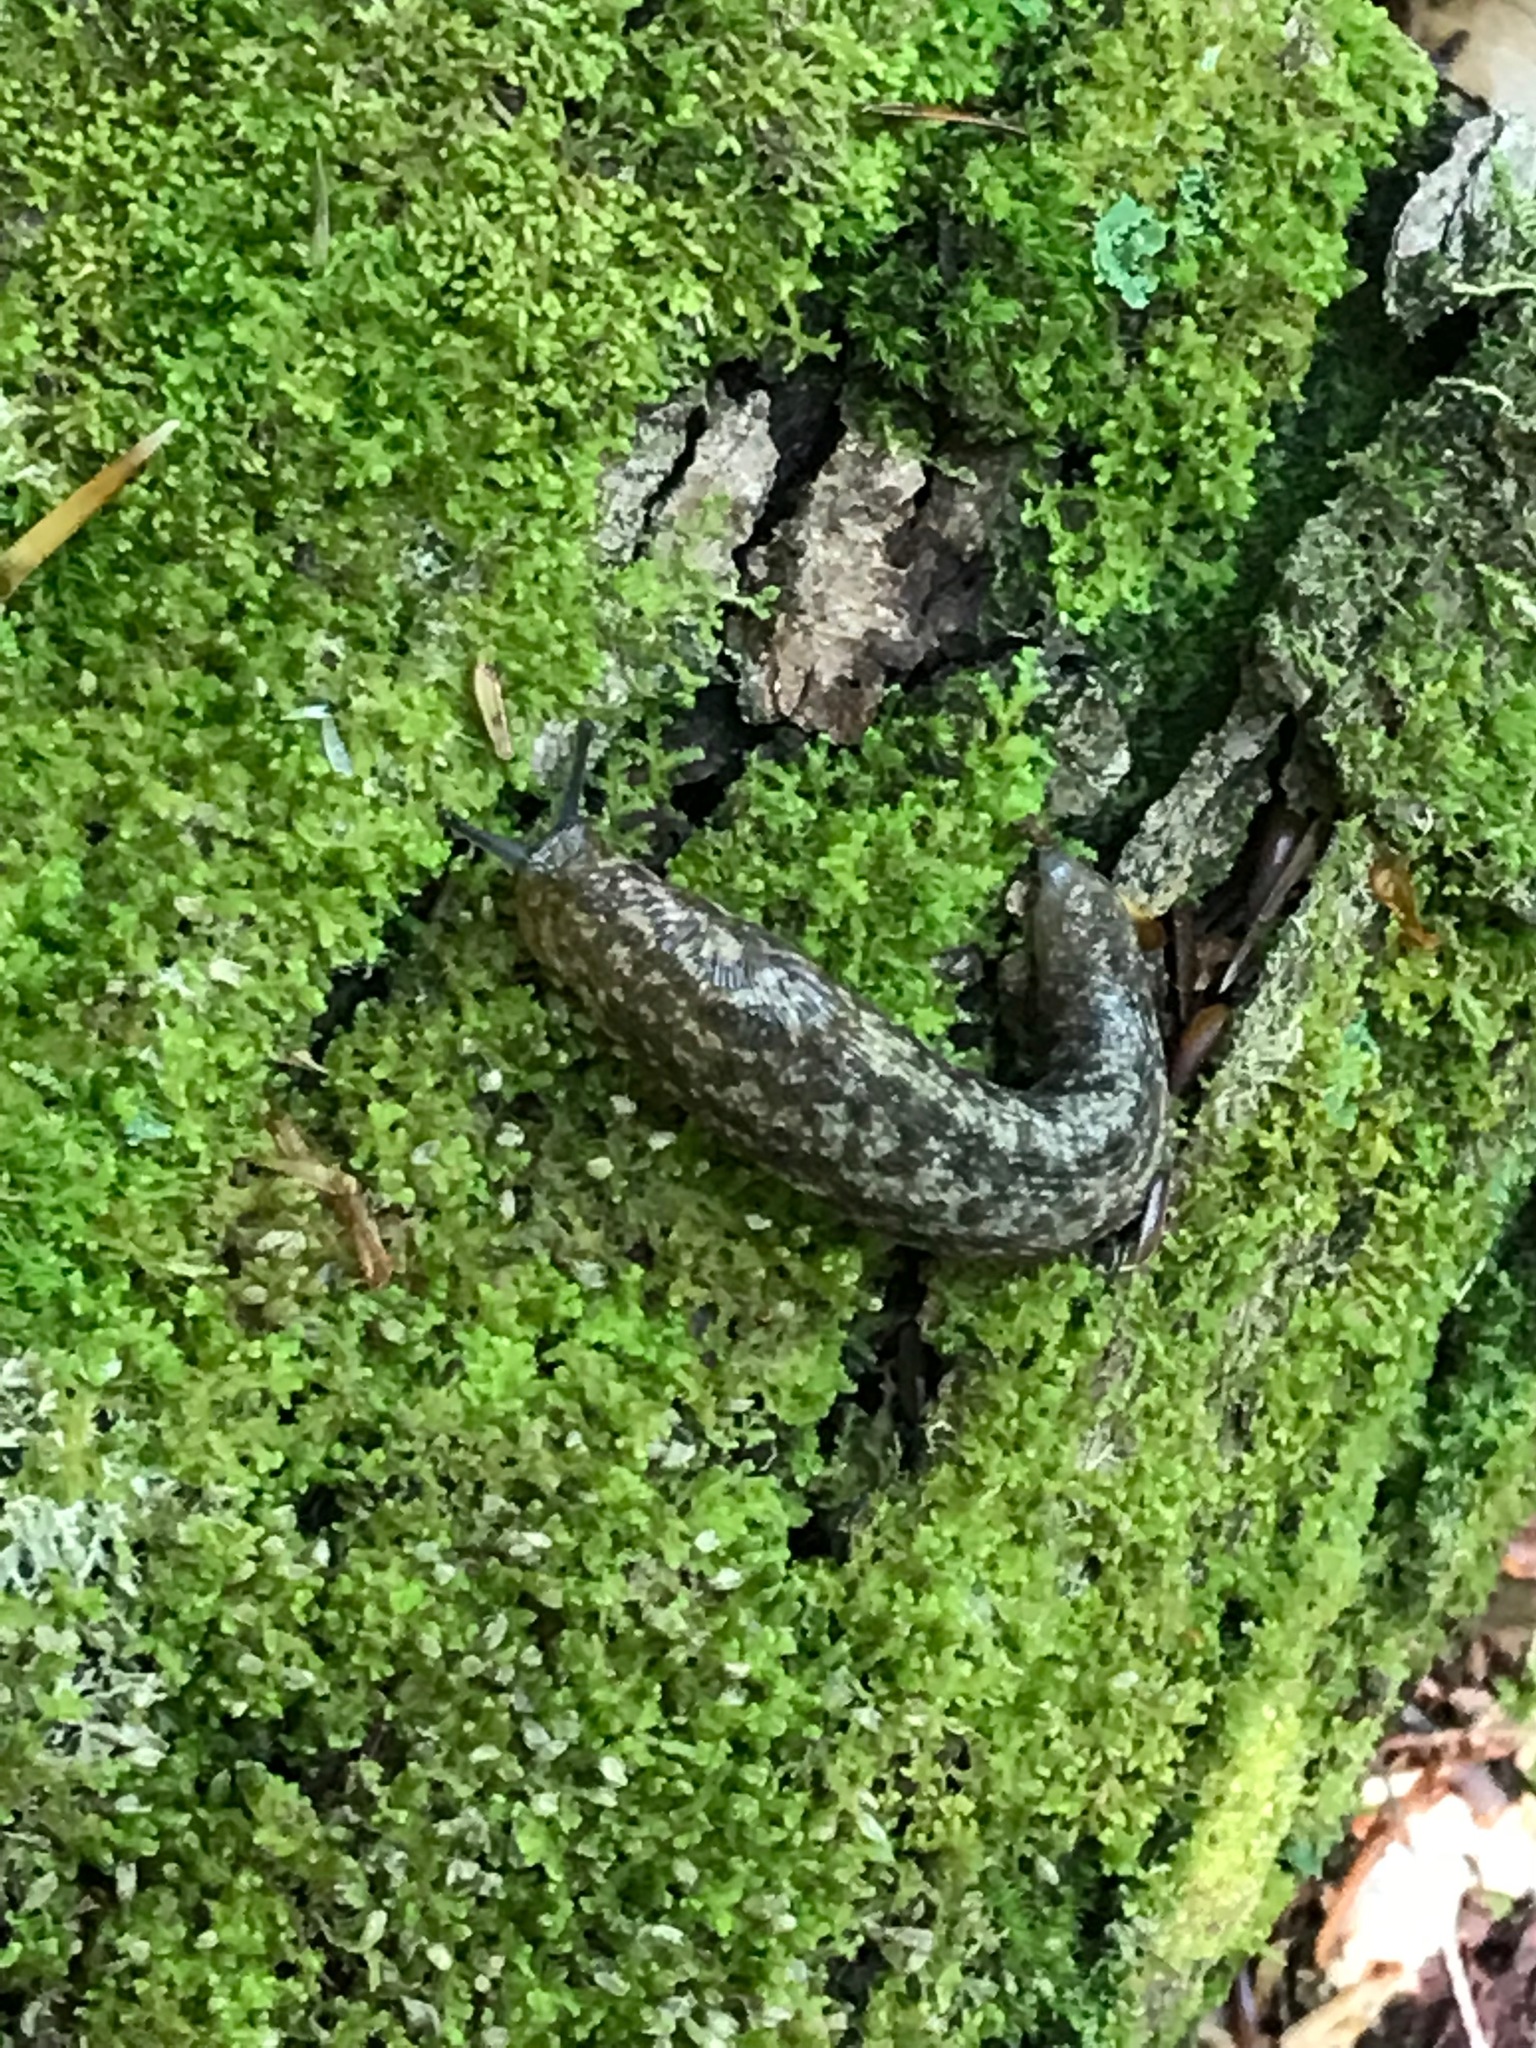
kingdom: Animalia
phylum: Mollusca
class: Gastropoda
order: Stylommatophora
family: Philomycidae
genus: Philomycus
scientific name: Philomycus flexuolaris
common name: Winding mantleslug
